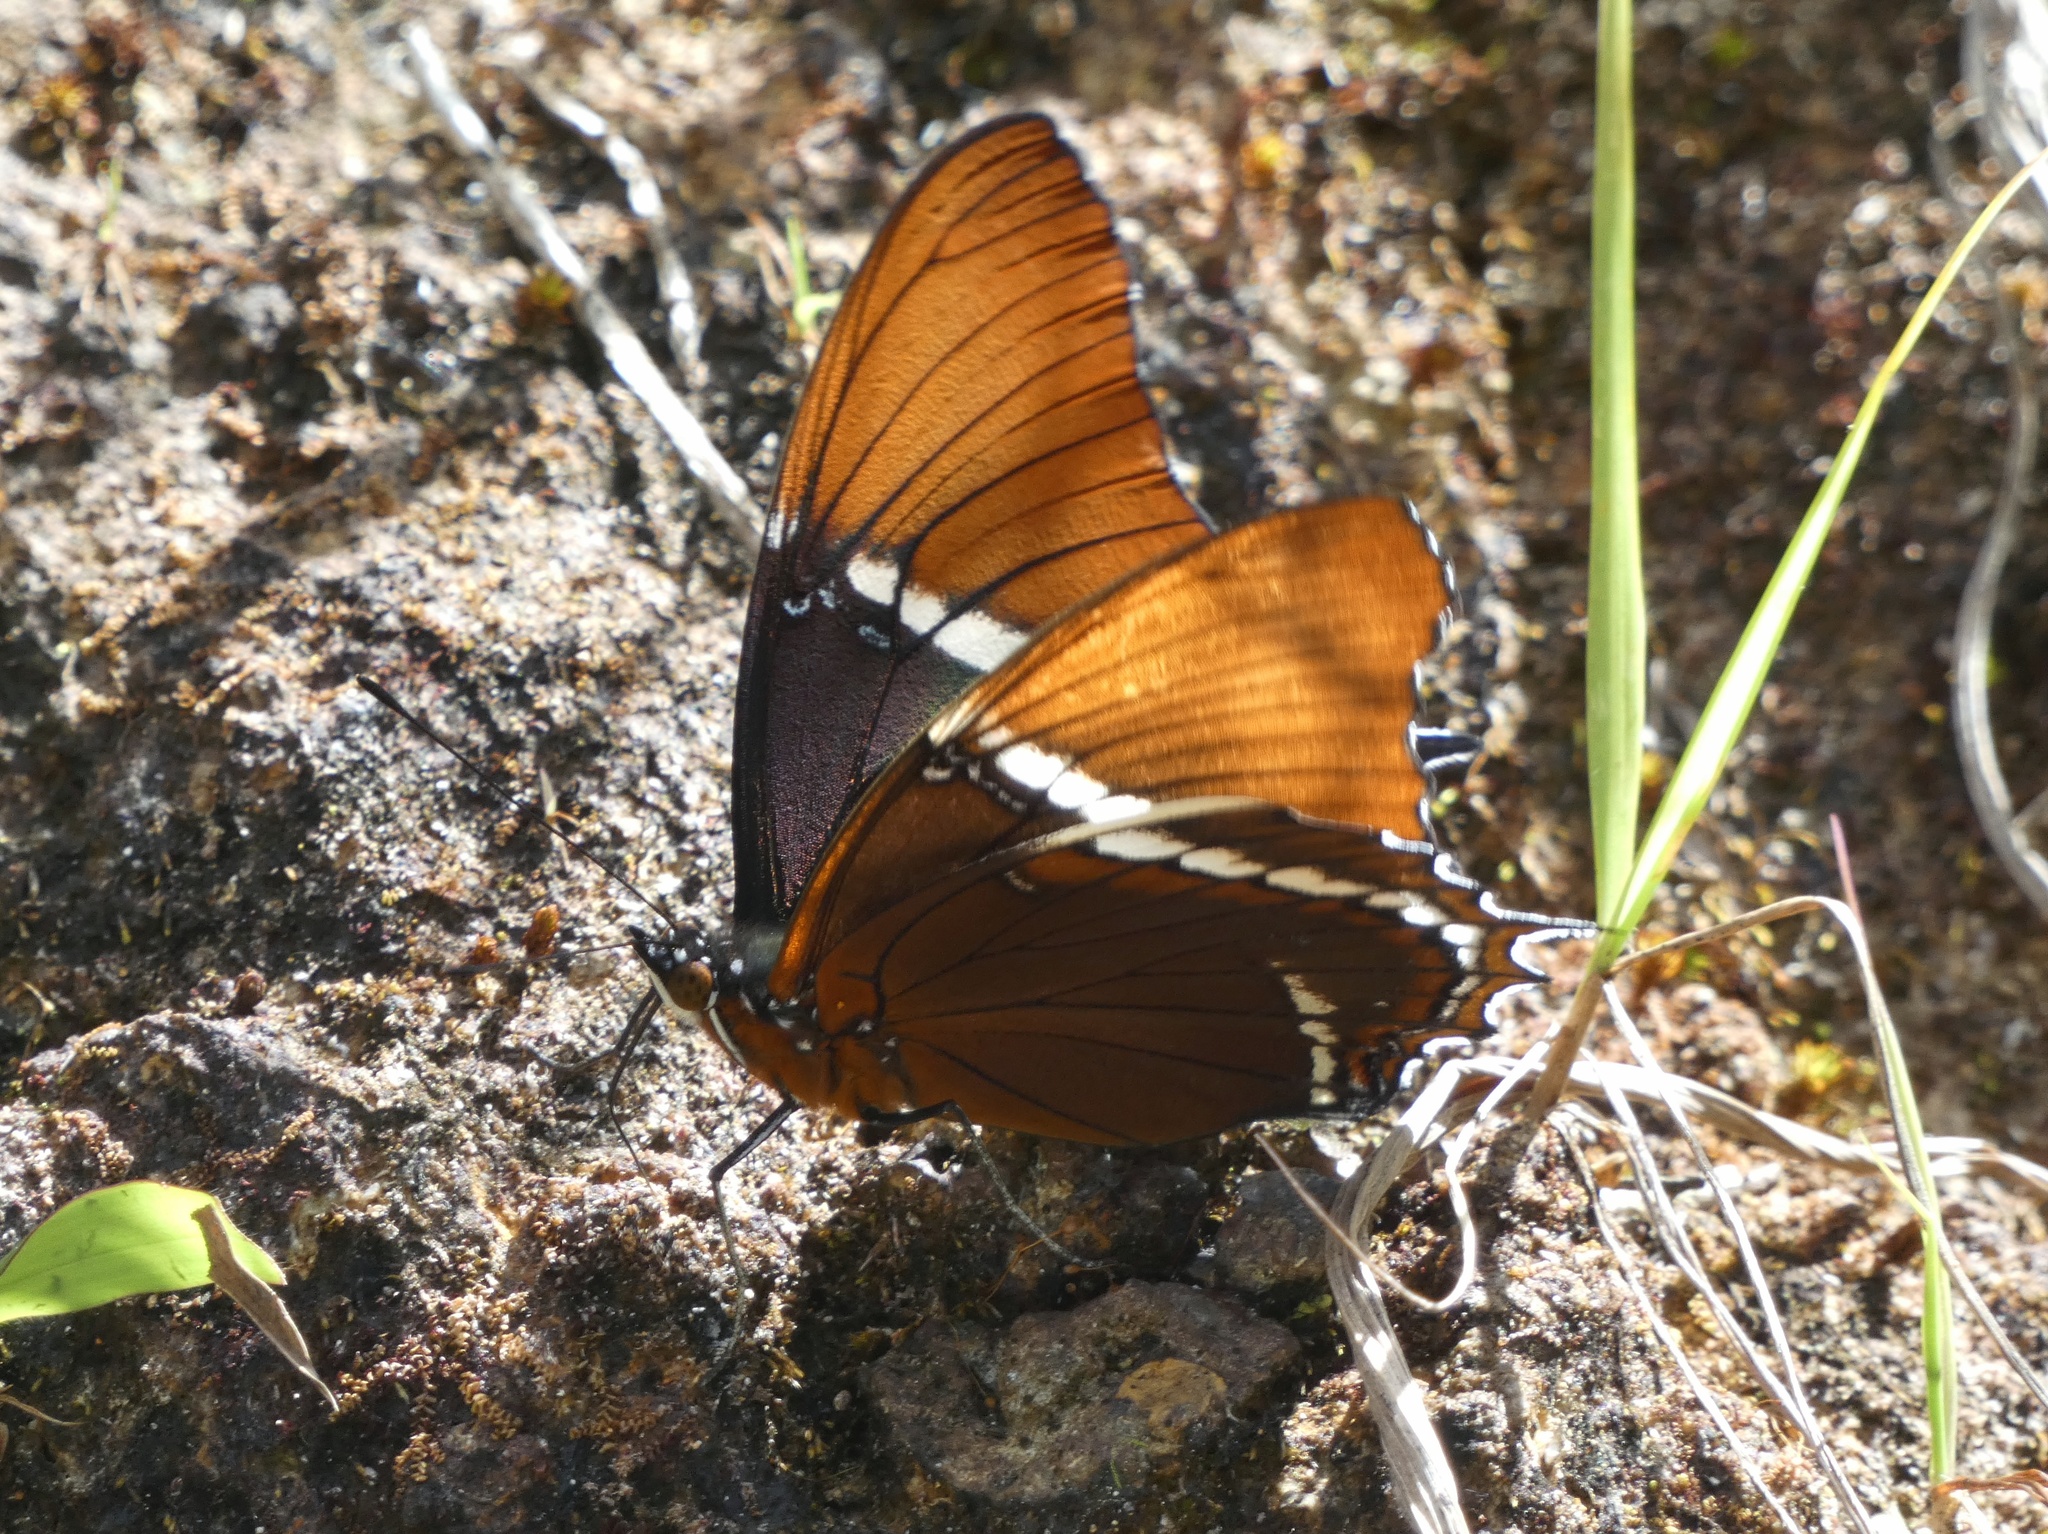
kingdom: Animalia
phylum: Arthropoda
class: Insecta
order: Lepidoptera
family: Nymphalidae
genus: Siproeta
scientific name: Siproeta epaphus
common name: Rusty-tipped page
